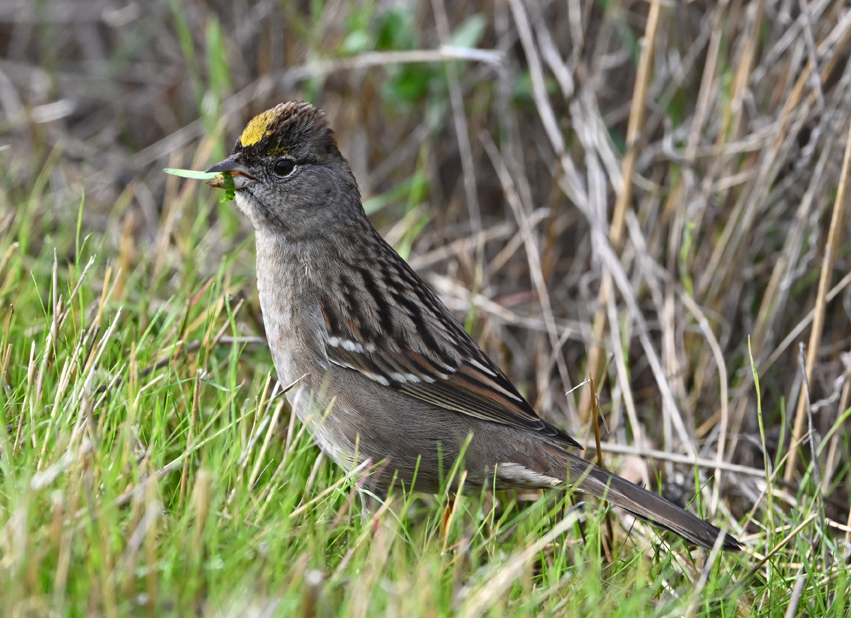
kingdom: Animalia
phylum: Chordata
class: Aves
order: Passeriformes
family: Passerellidae
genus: Zonotrichia
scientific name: Zonotrichia atricapilla
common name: Golden-crowned sparrow
